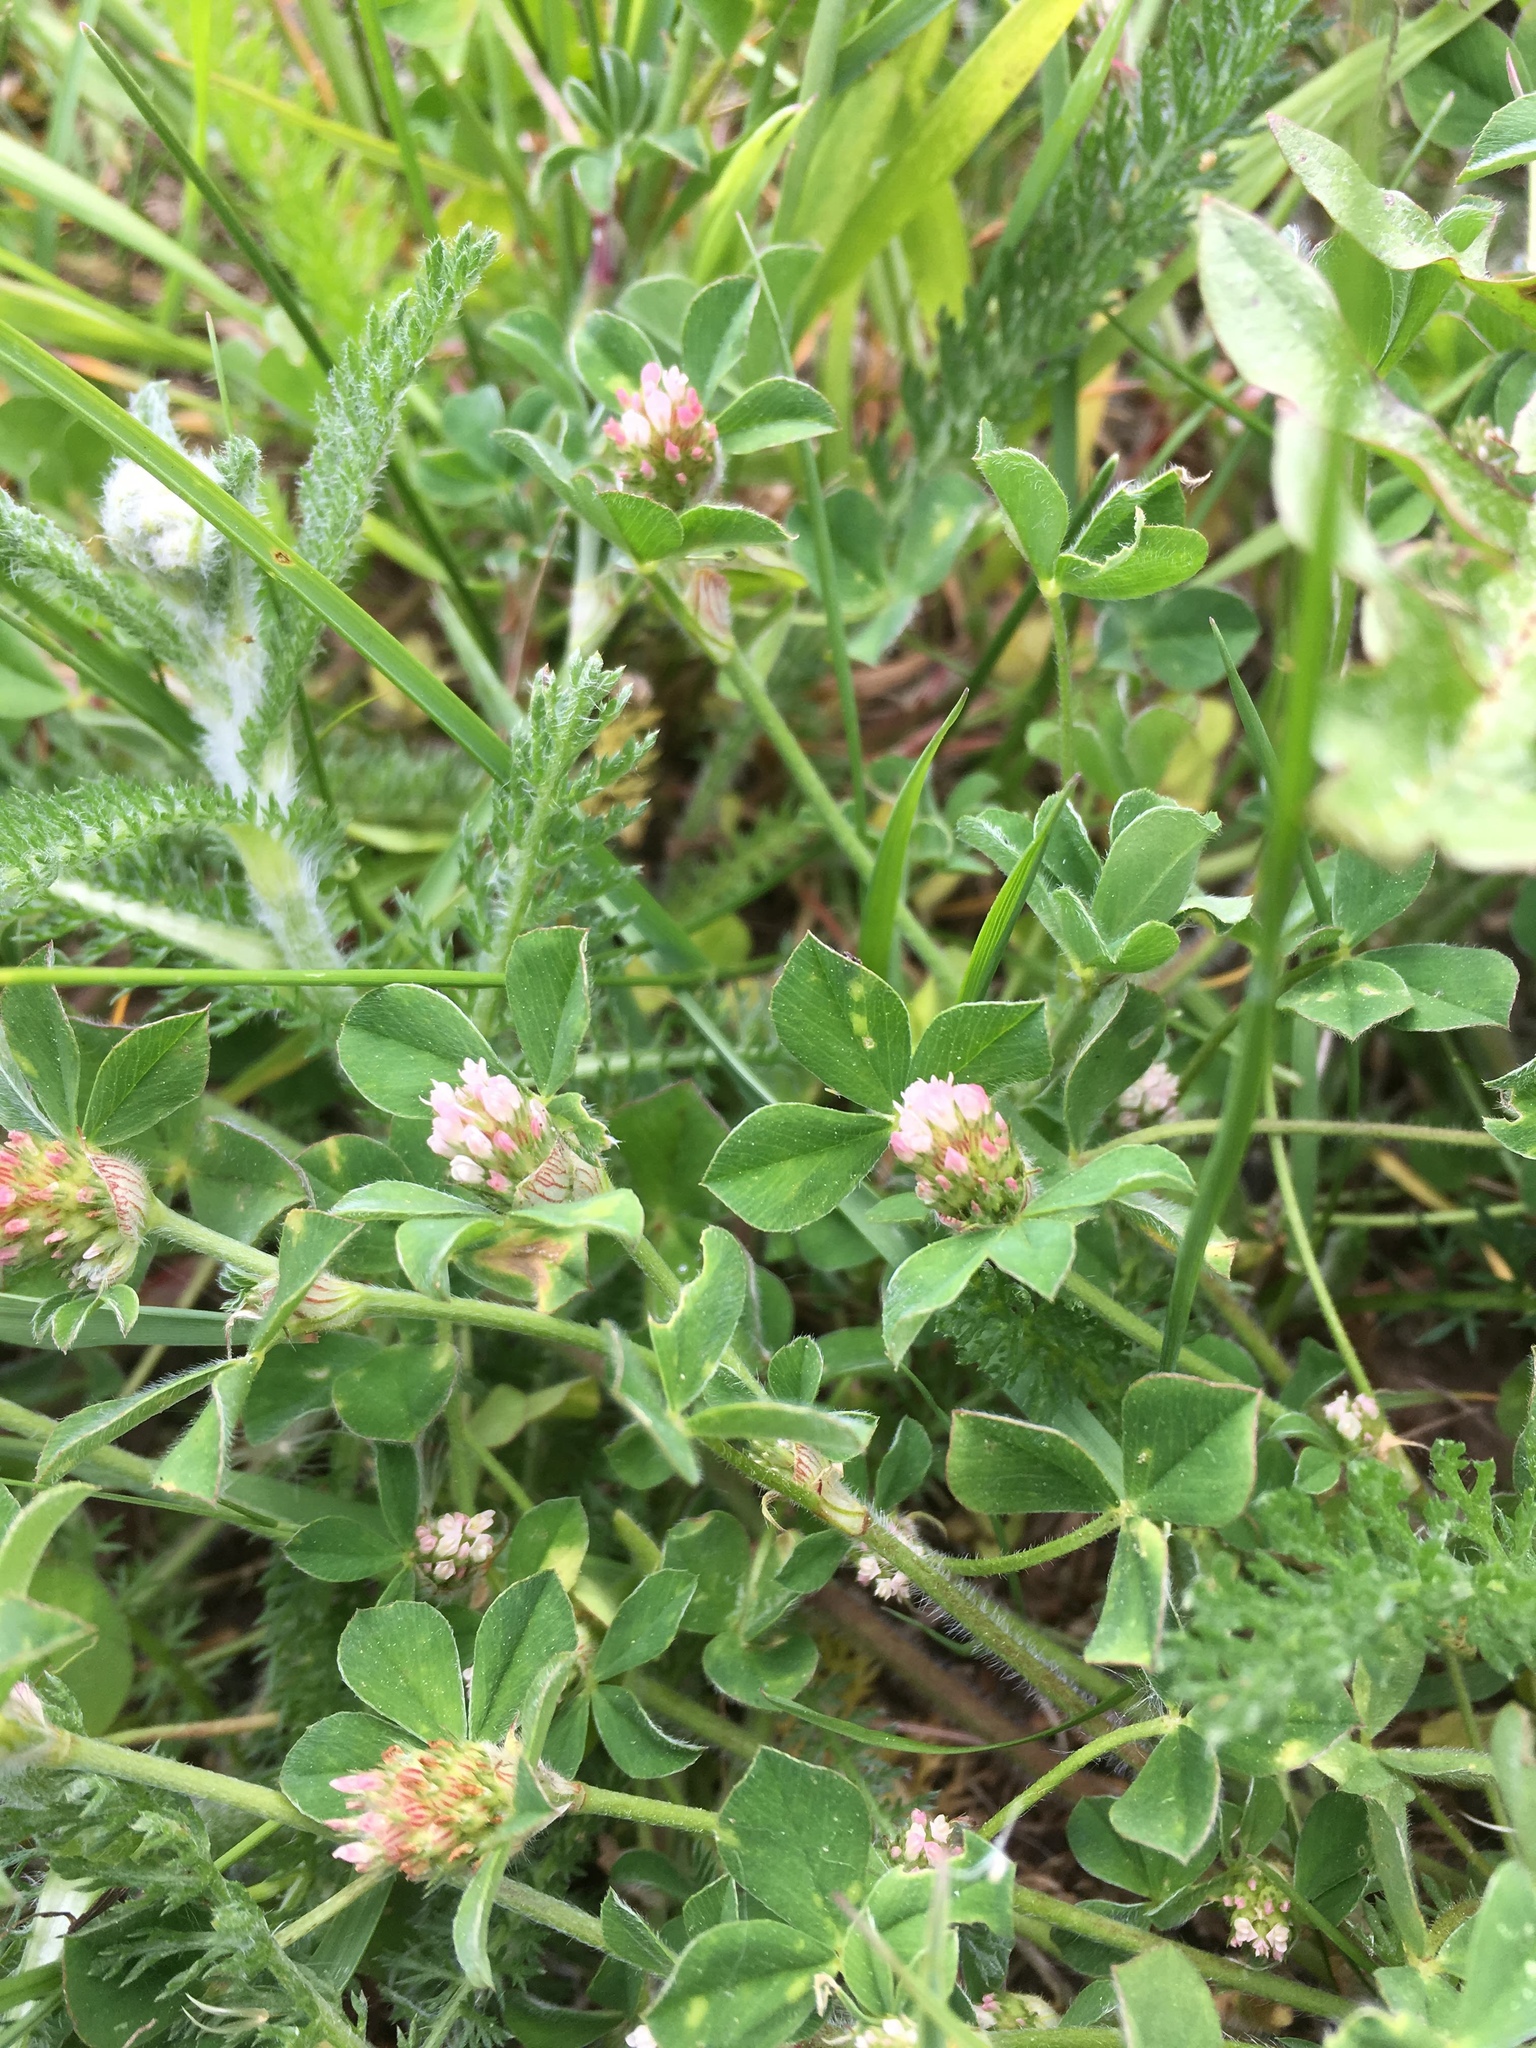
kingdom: Plantae
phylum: Tracheophyta
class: Magnoliopsida
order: Fabales
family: Fabaceae
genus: Trifolium
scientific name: Trifolium striatum
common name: Knotted clover
